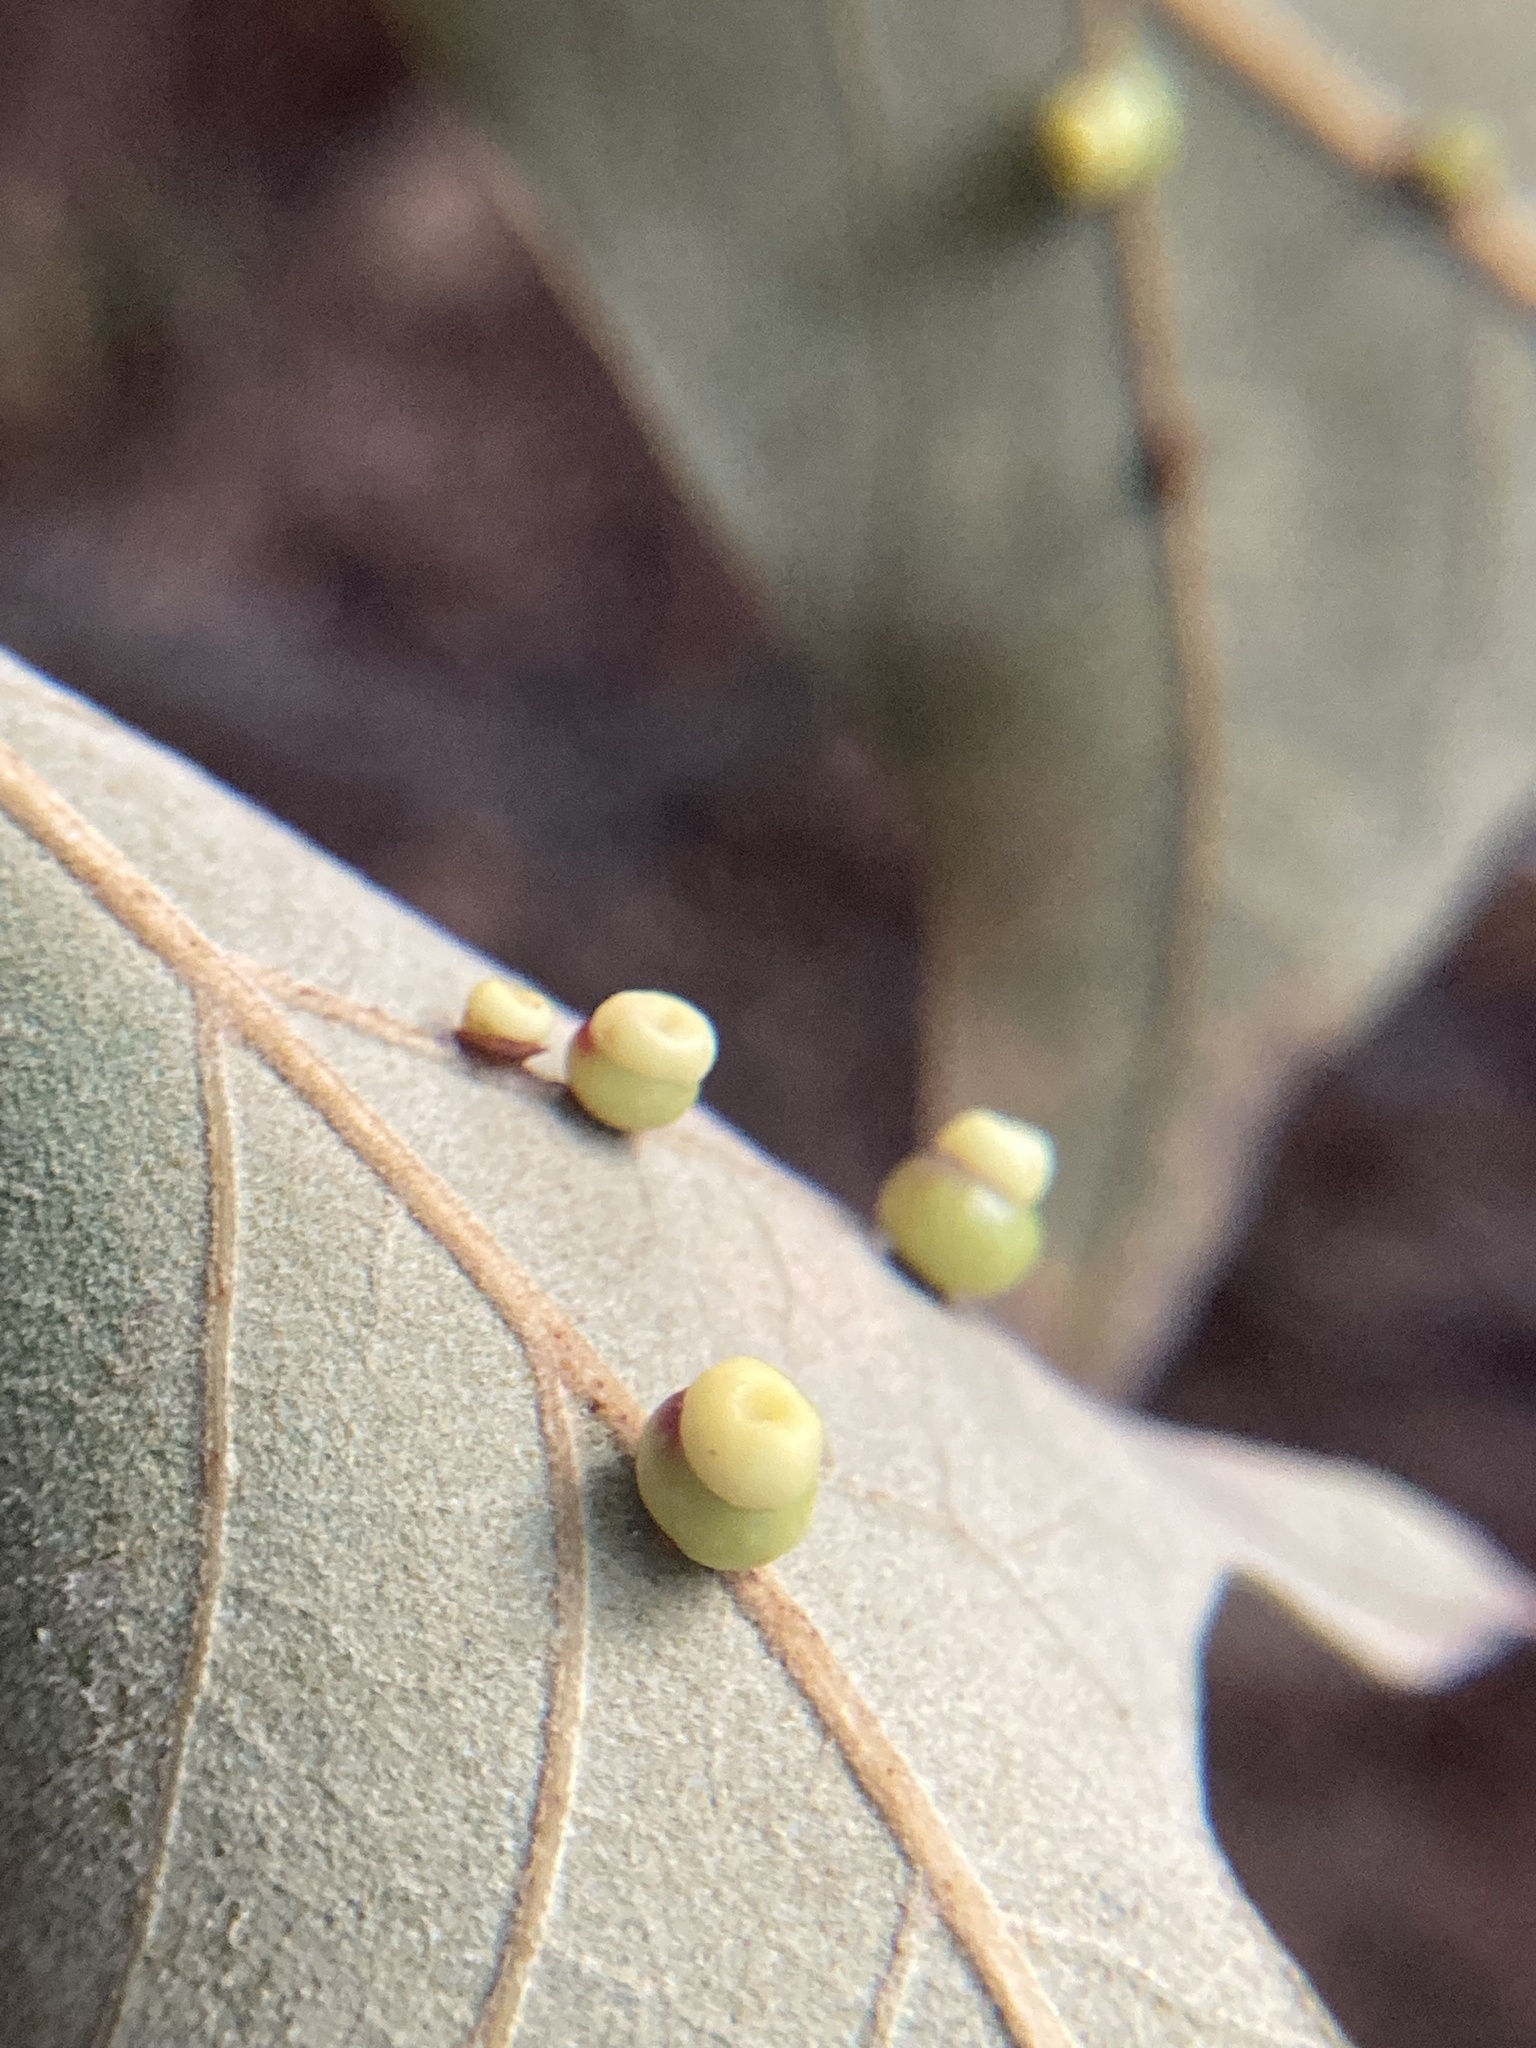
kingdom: Animalia
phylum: Arthropoda
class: Insecta
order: Hymenoptera
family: Cynipidae
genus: Kokkocynips
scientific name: Kokkocynips rileyi
